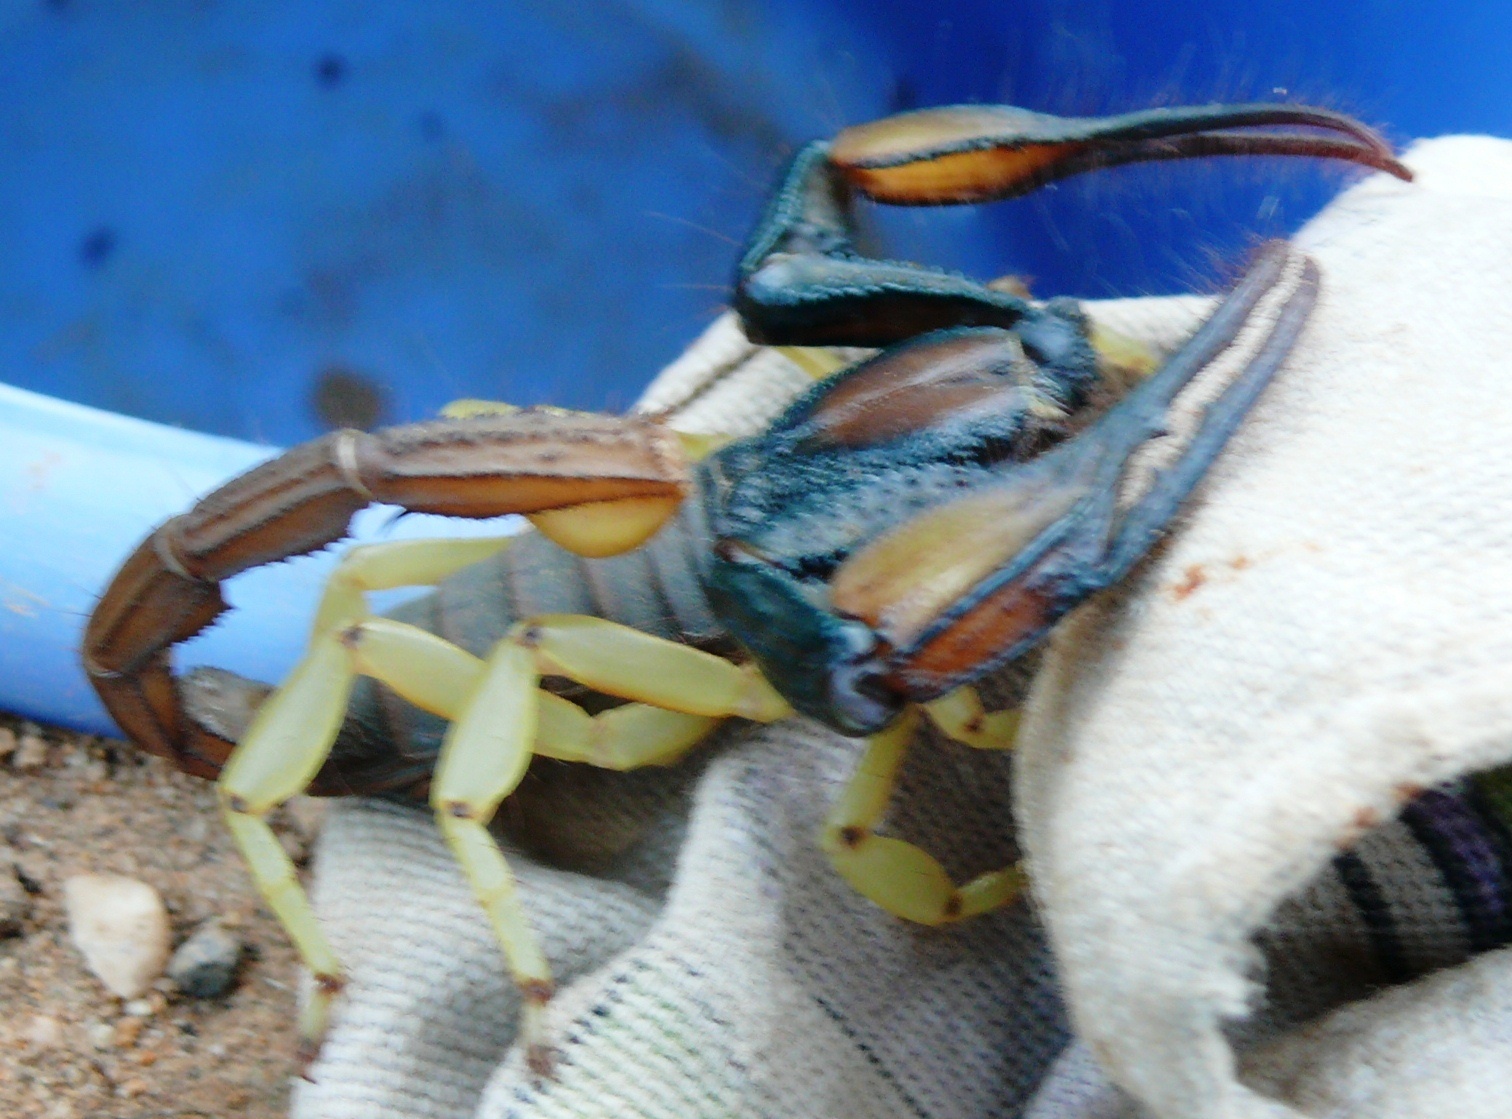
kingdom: Animalia
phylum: Arthropoda
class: Arachnida
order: Scorpiones
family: Scorpionidae
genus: Opistophthalmus
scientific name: Opistophthalmus pallipes
